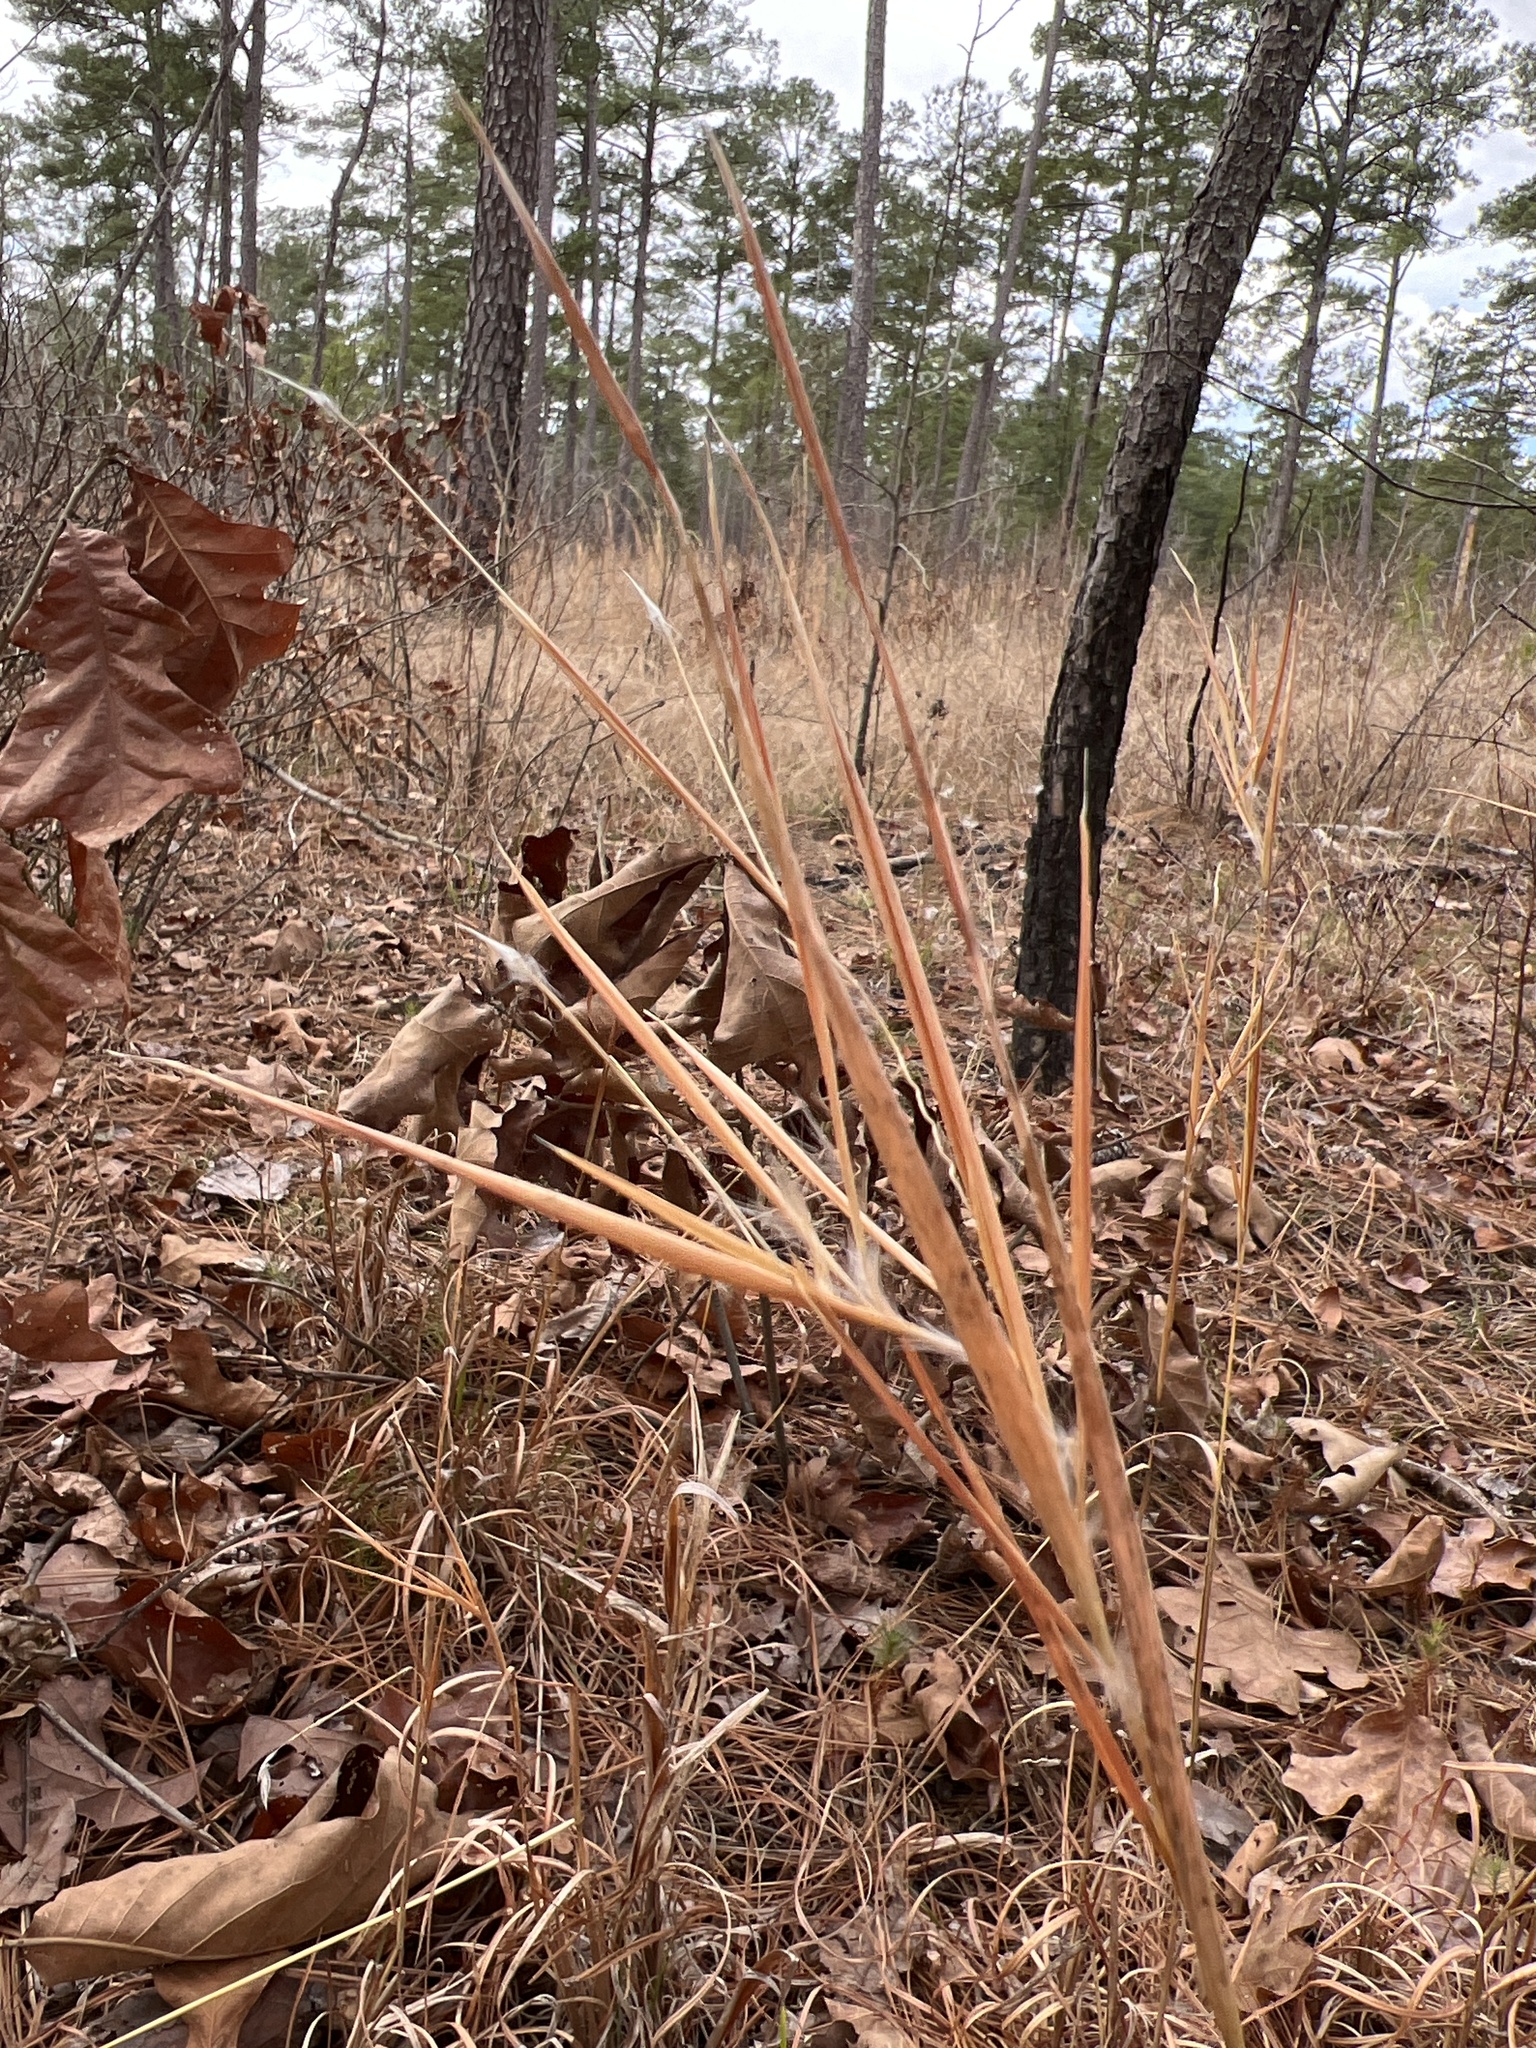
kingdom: Plantae
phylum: Tracheophyta
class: Liliopsida
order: Poales
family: Poaceae
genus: Andropogon
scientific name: Andropogon gyrans
